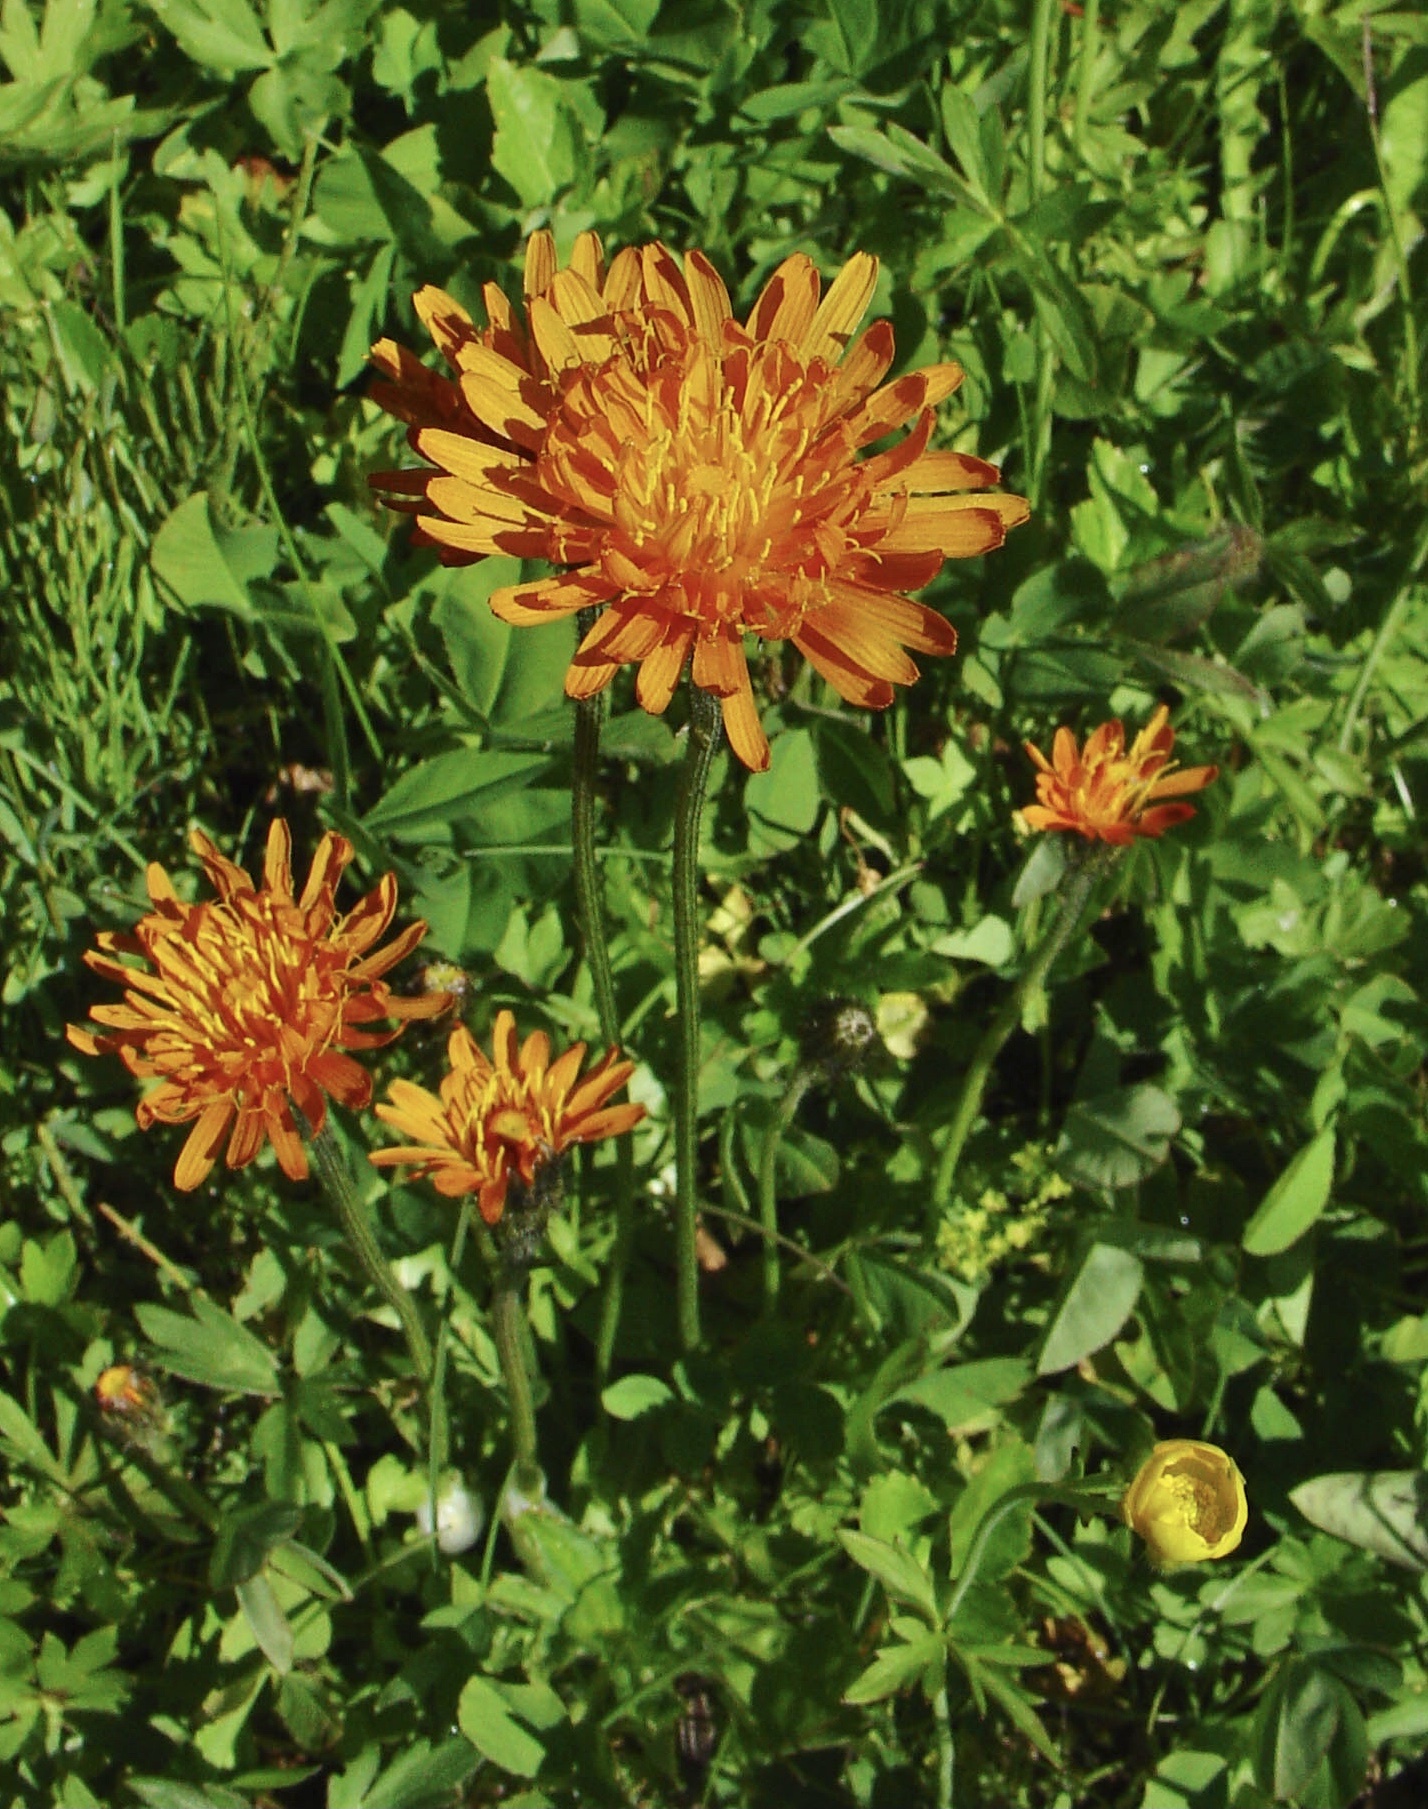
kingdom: Plantae
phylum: Tracheophyta
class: Magnoliopsida
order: Asterales
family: Asteraceae
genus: Crepis
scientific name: Crepis aurea
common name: Golden hawk's-beard
